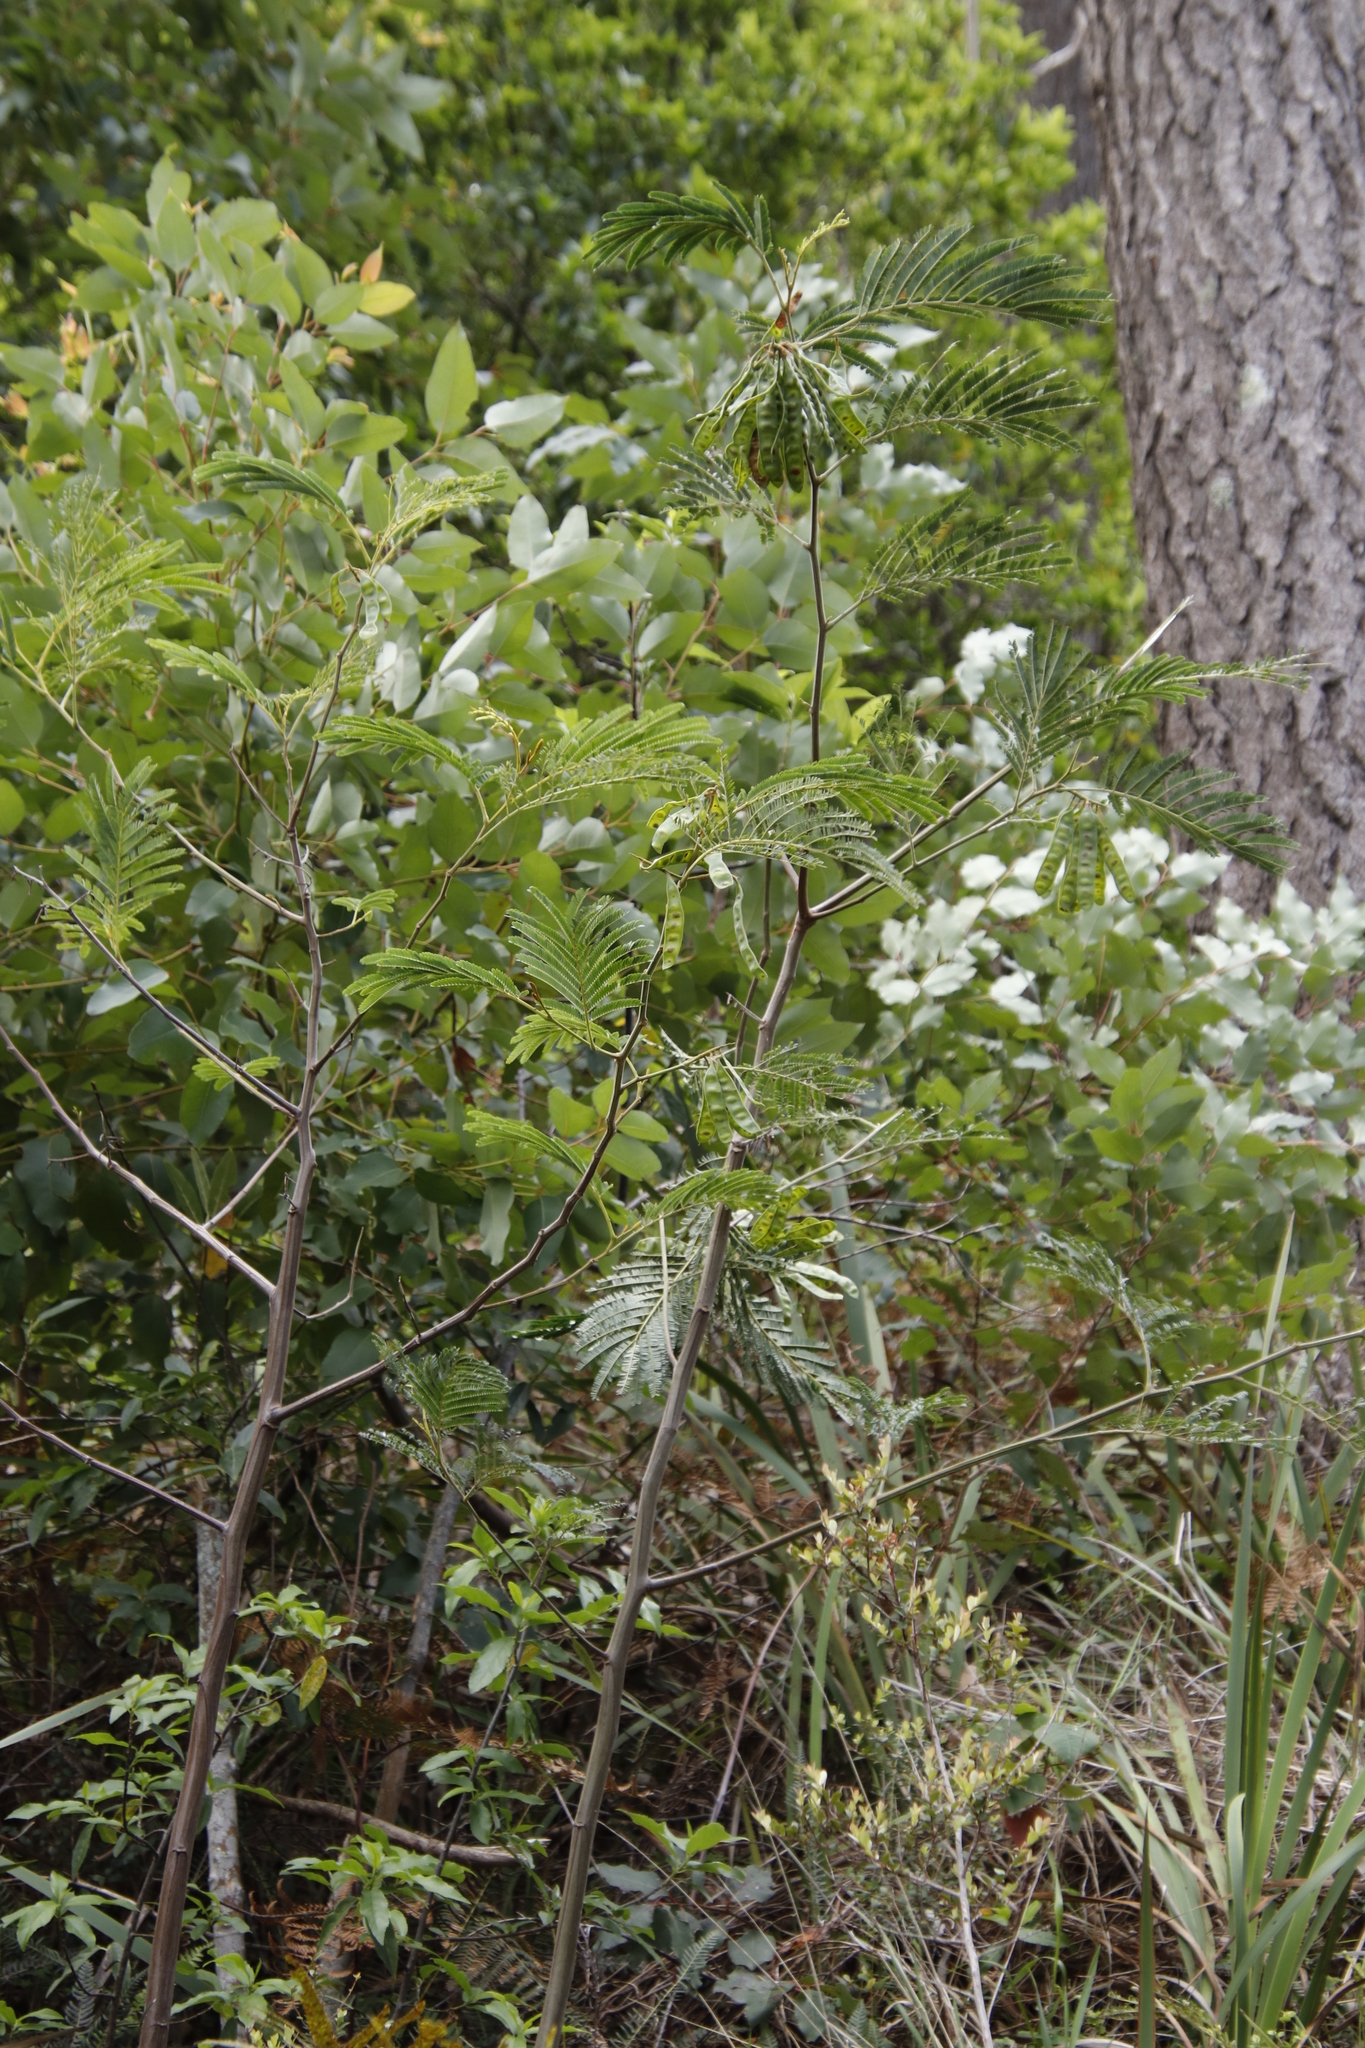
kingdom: Plantae
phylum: Tracheophyta
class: Magnoliopsida
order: Fabales
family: Fabaceae
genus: Paraserianthes
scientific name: Paraserianthes lophantha
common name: Plume albizia
